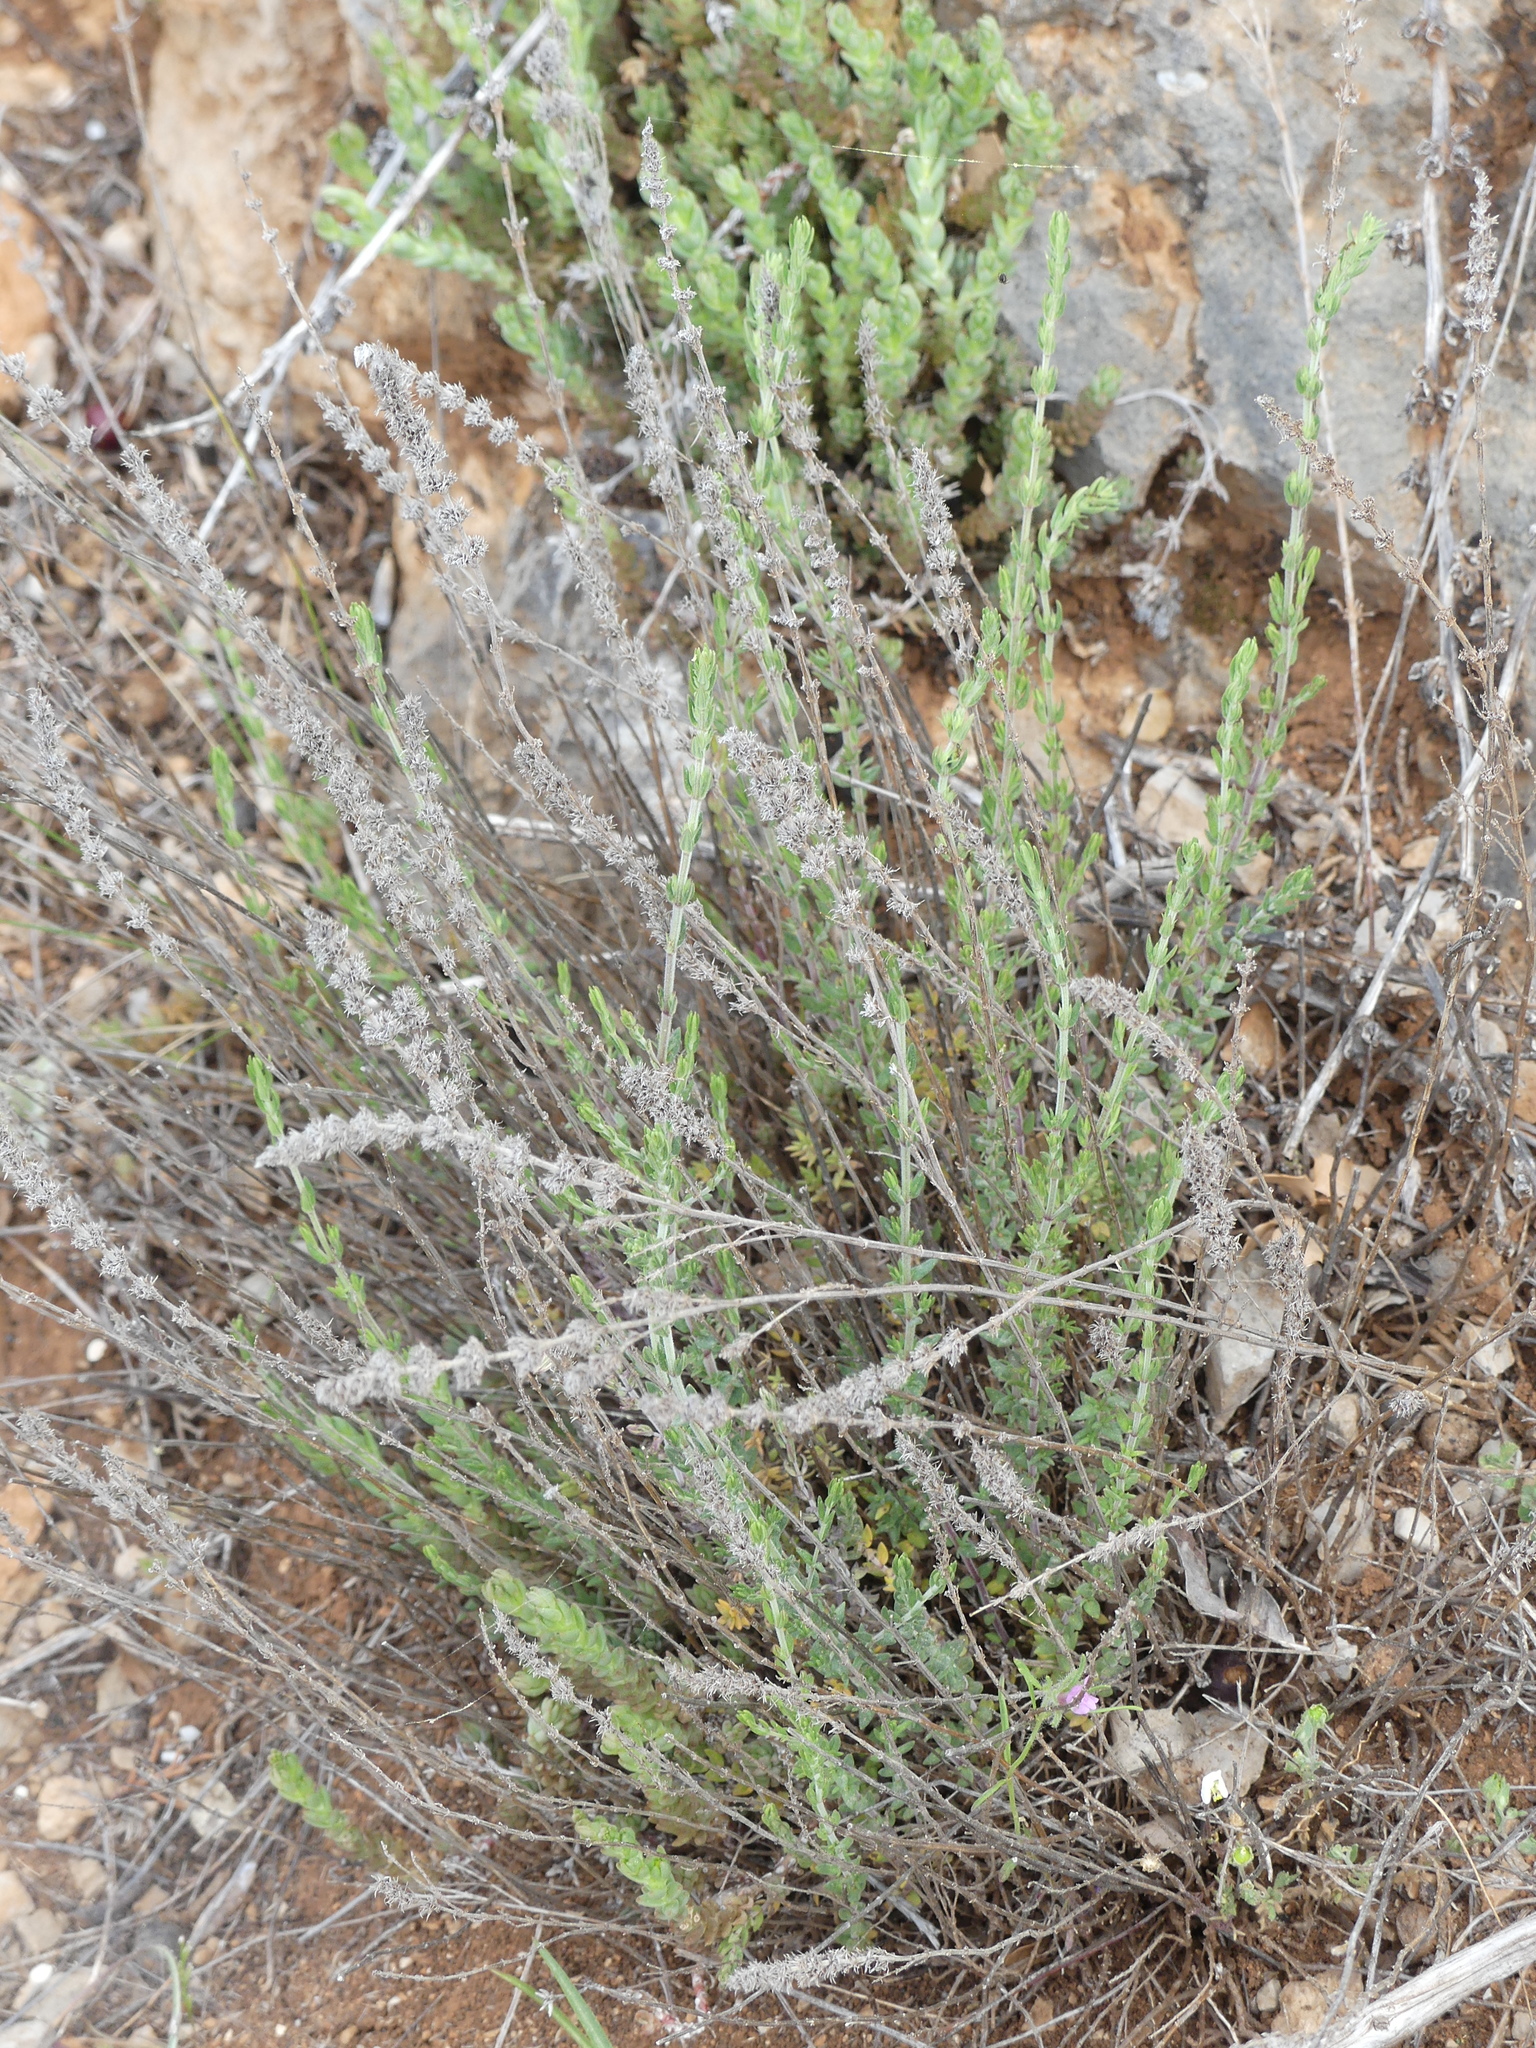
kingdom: Plantae
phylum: Tracheophyta
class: Magnoliopsida
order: Lamiales
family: Lamiaceae
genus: Micromeria
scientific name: Micromeria juliana
